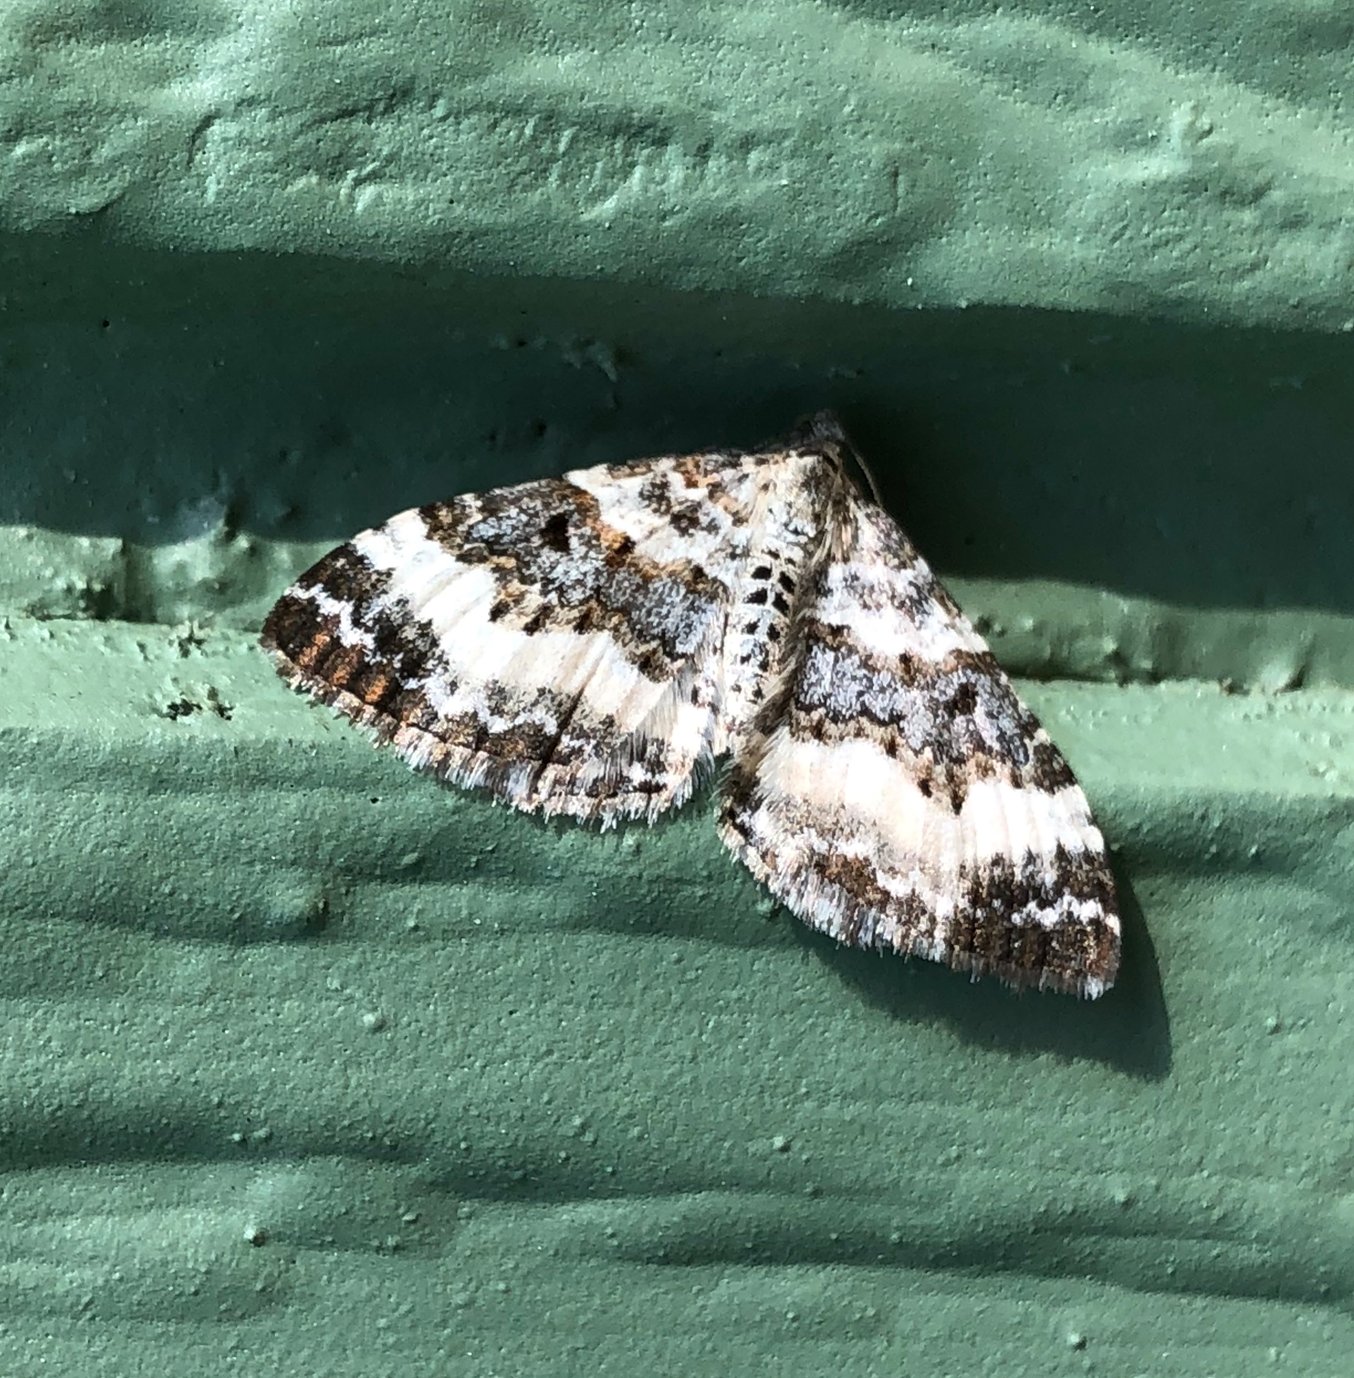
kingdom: Animalia
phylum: Arthropoda
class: Insecta
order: Lepidoptera
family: Geometridae
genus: Epirrhoe
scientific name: Epirrhoe alternata
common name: Common carpet
